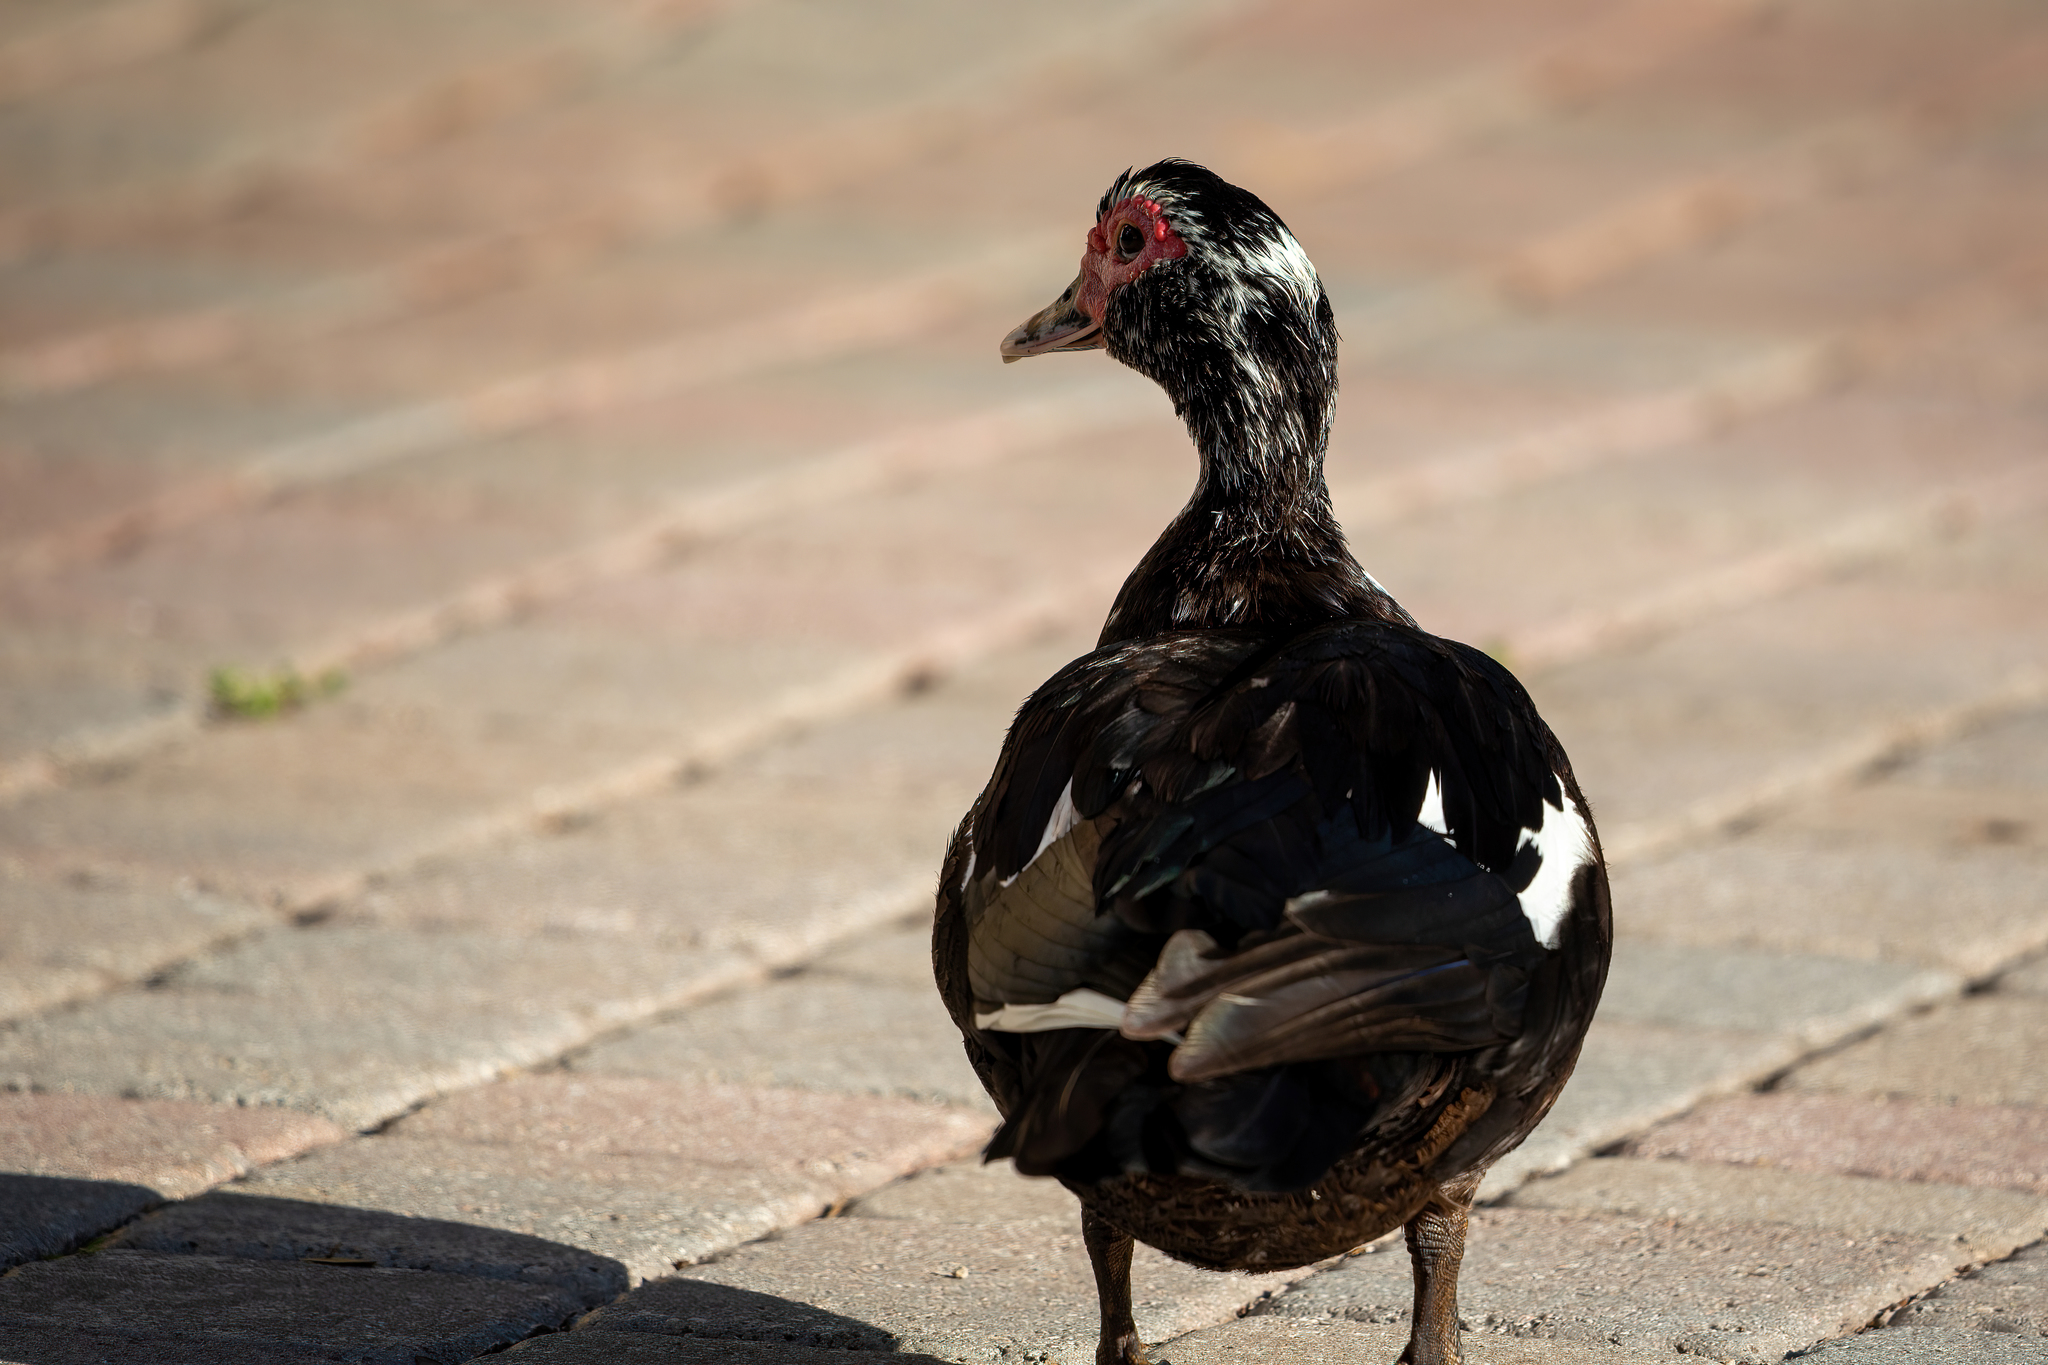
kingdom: Animalia
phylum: Chordata
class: Aves
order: Anseriformes
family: Anatidae
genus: Cairina
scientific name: Cairina moschata
